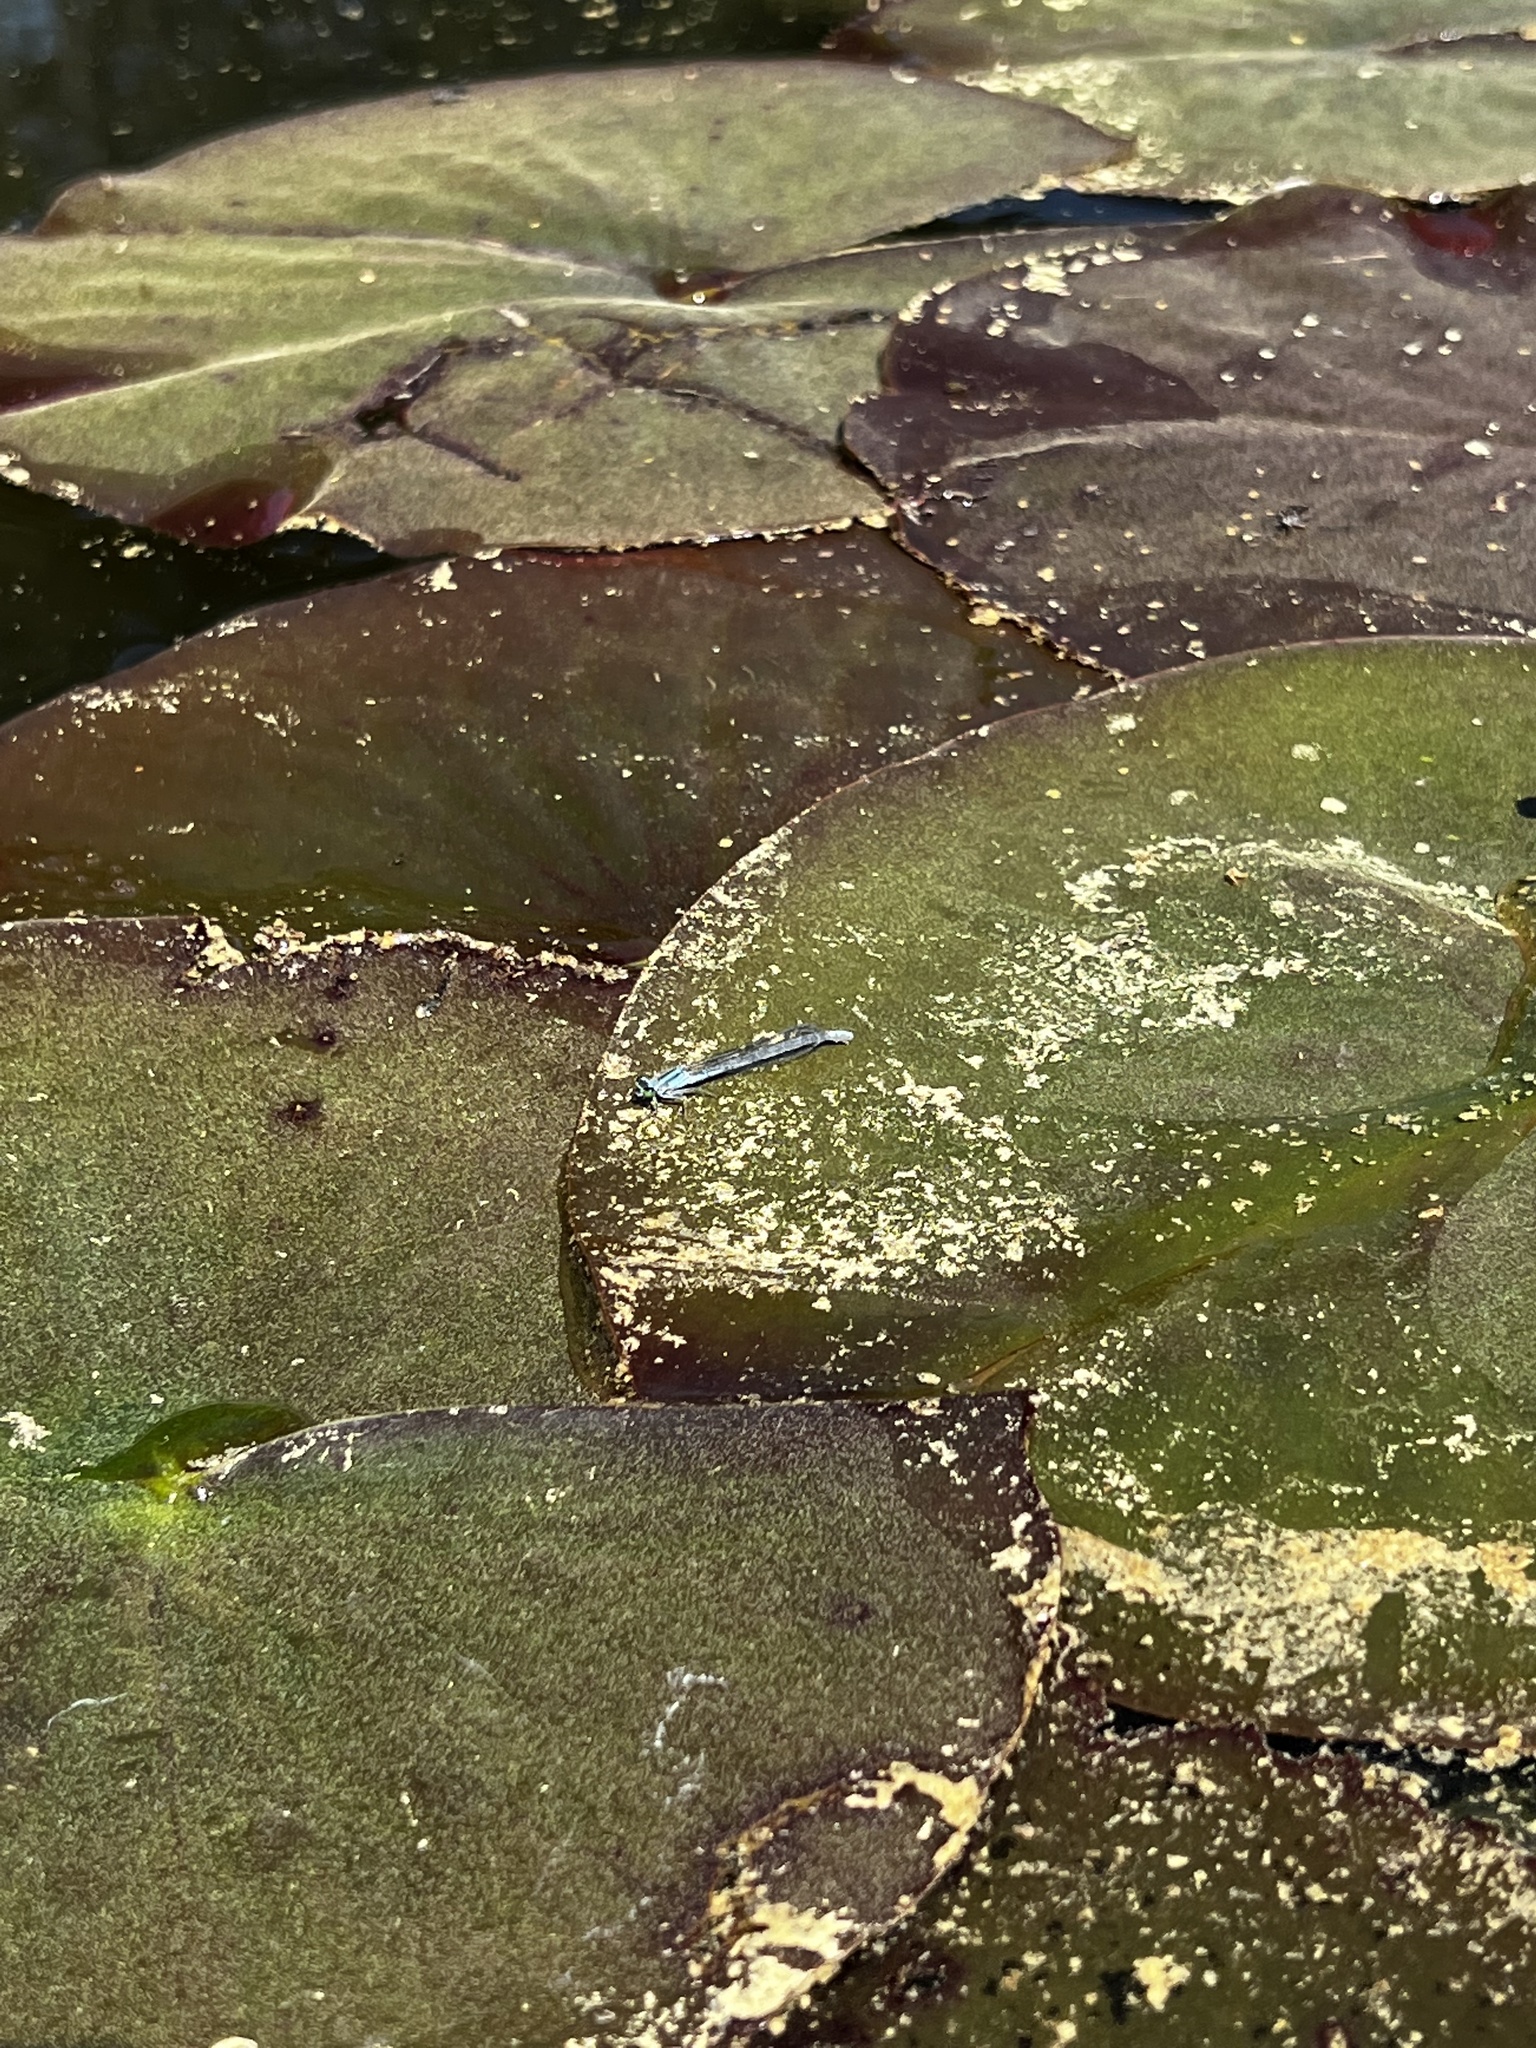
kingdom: Animalia
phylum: Arthropoda
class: Insecta
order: Odonata
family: Coenagrionidae
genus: Ischnura
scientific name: Ischnura kellicotti
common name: Lilypad forktail
